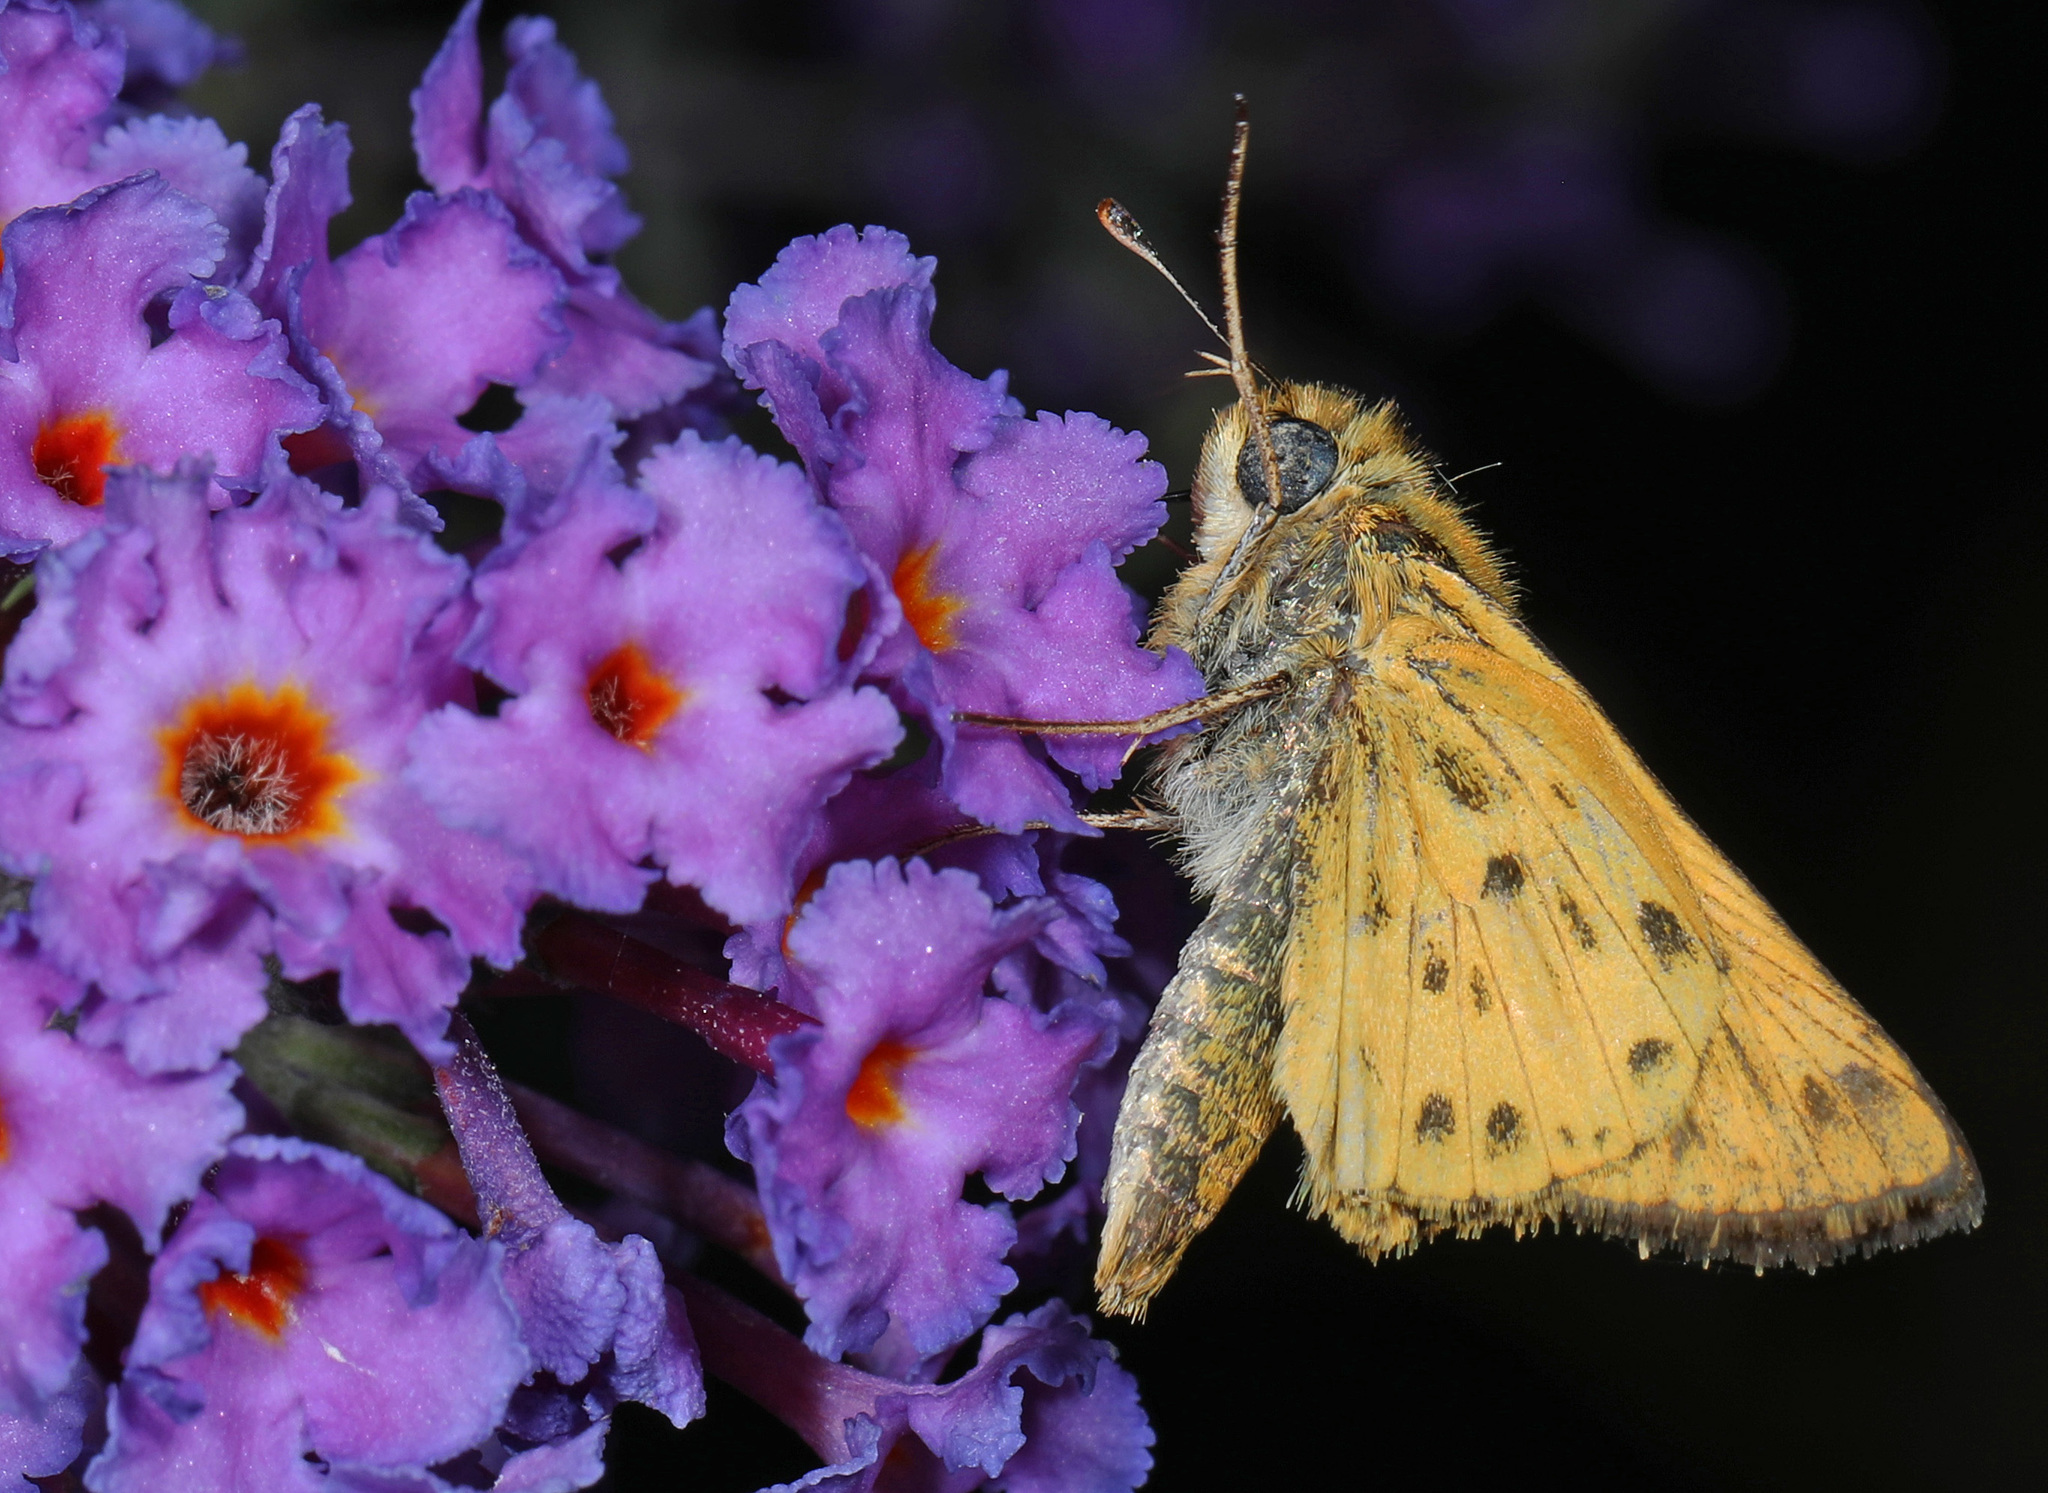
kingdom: Animalia
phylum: Arthropoda
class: Insecta
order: Lepidoptera
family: Hesperiidae
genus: Hylephila
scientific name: Hylephila phyleus
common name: Fiery skipper
